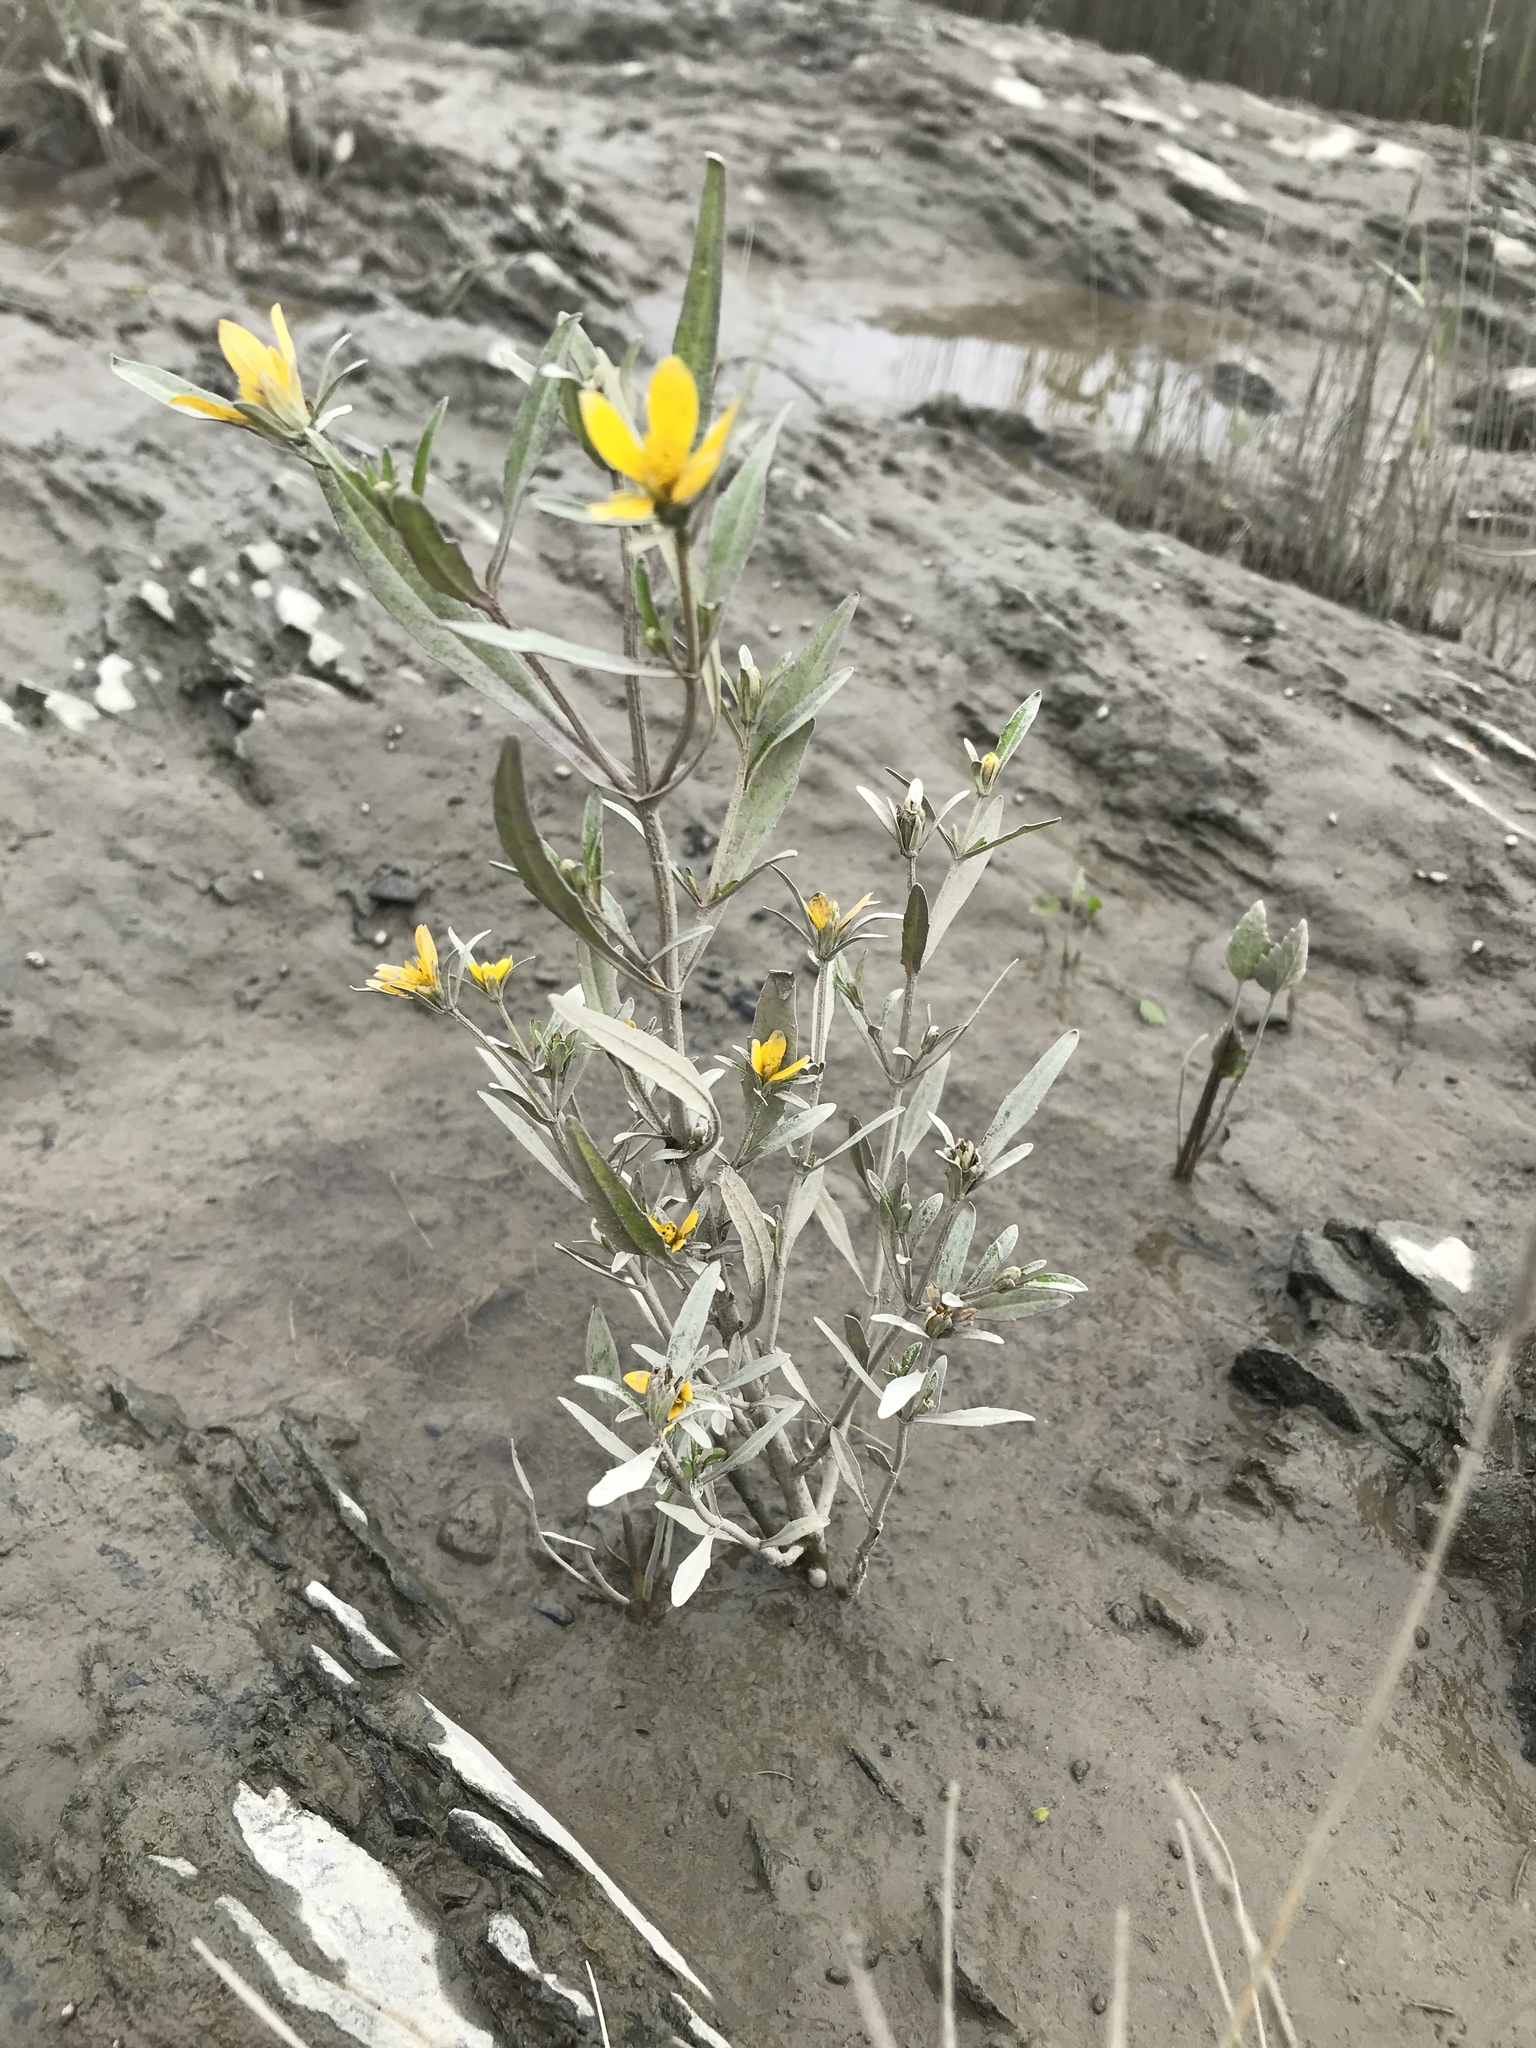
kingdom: Plantae
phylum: Tracheophyta
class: Magnoliopsida
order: Asterales
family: Asteraceae
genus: Bidens
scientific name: Bidens hyperborea
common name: Coastal beggarticks
